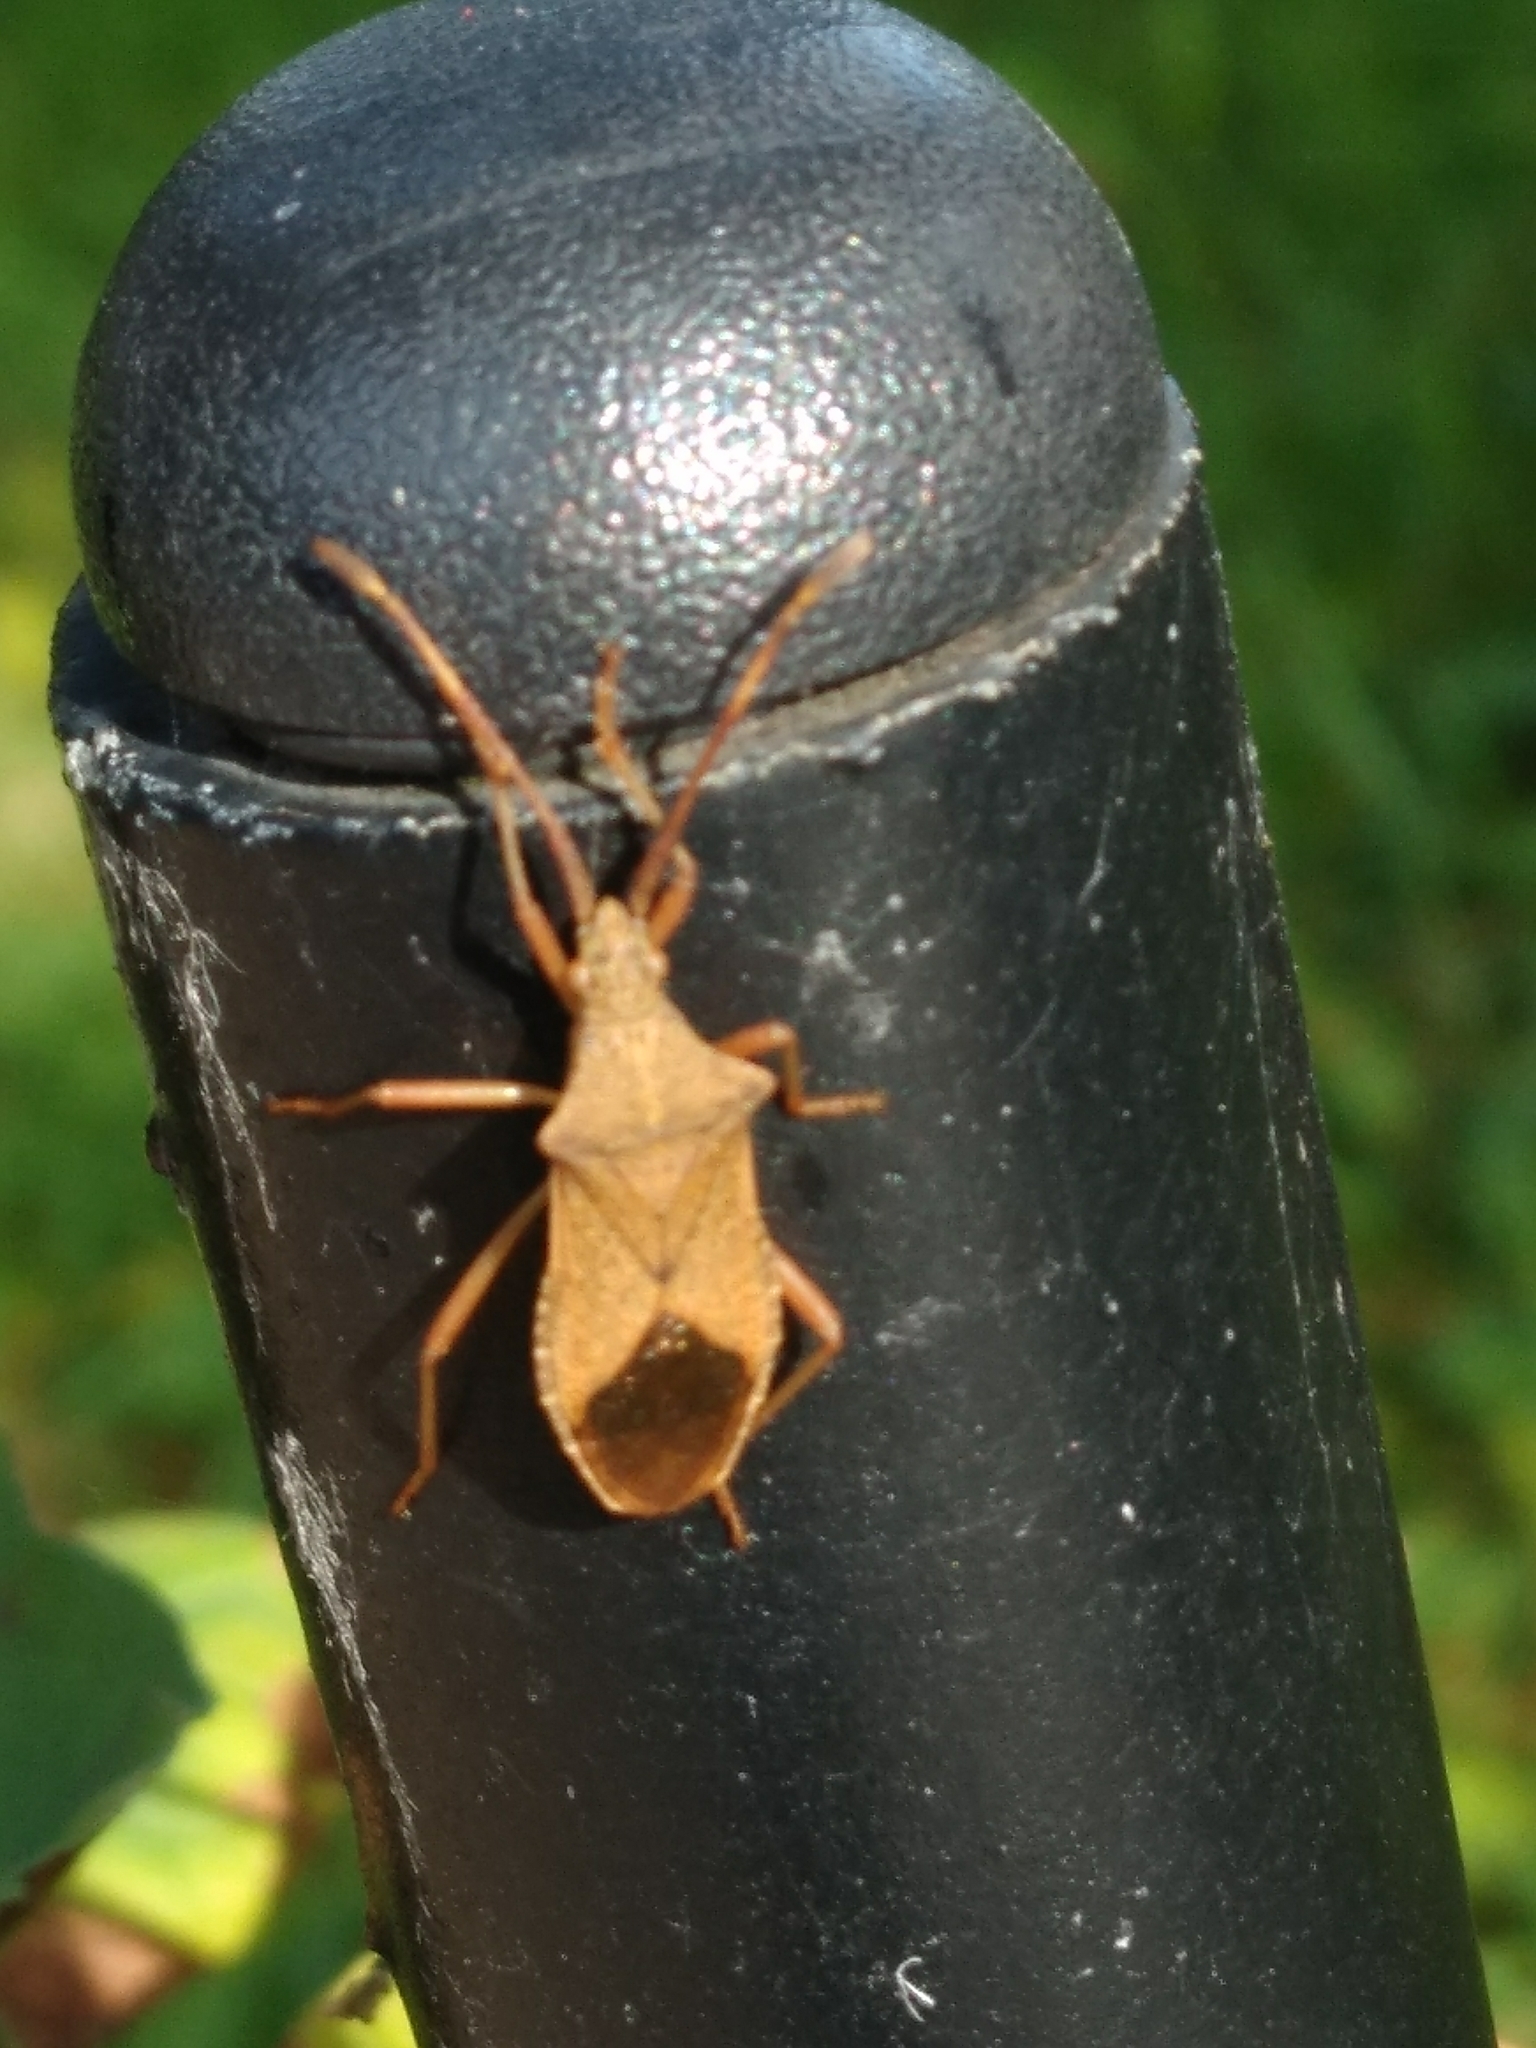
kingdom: Animalia
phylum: Arthropoda
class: Insecta
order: Hemiptera
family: Coreidae
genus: Gonocerus
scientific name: Gonocerus acuteangulatus
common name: Box bug
